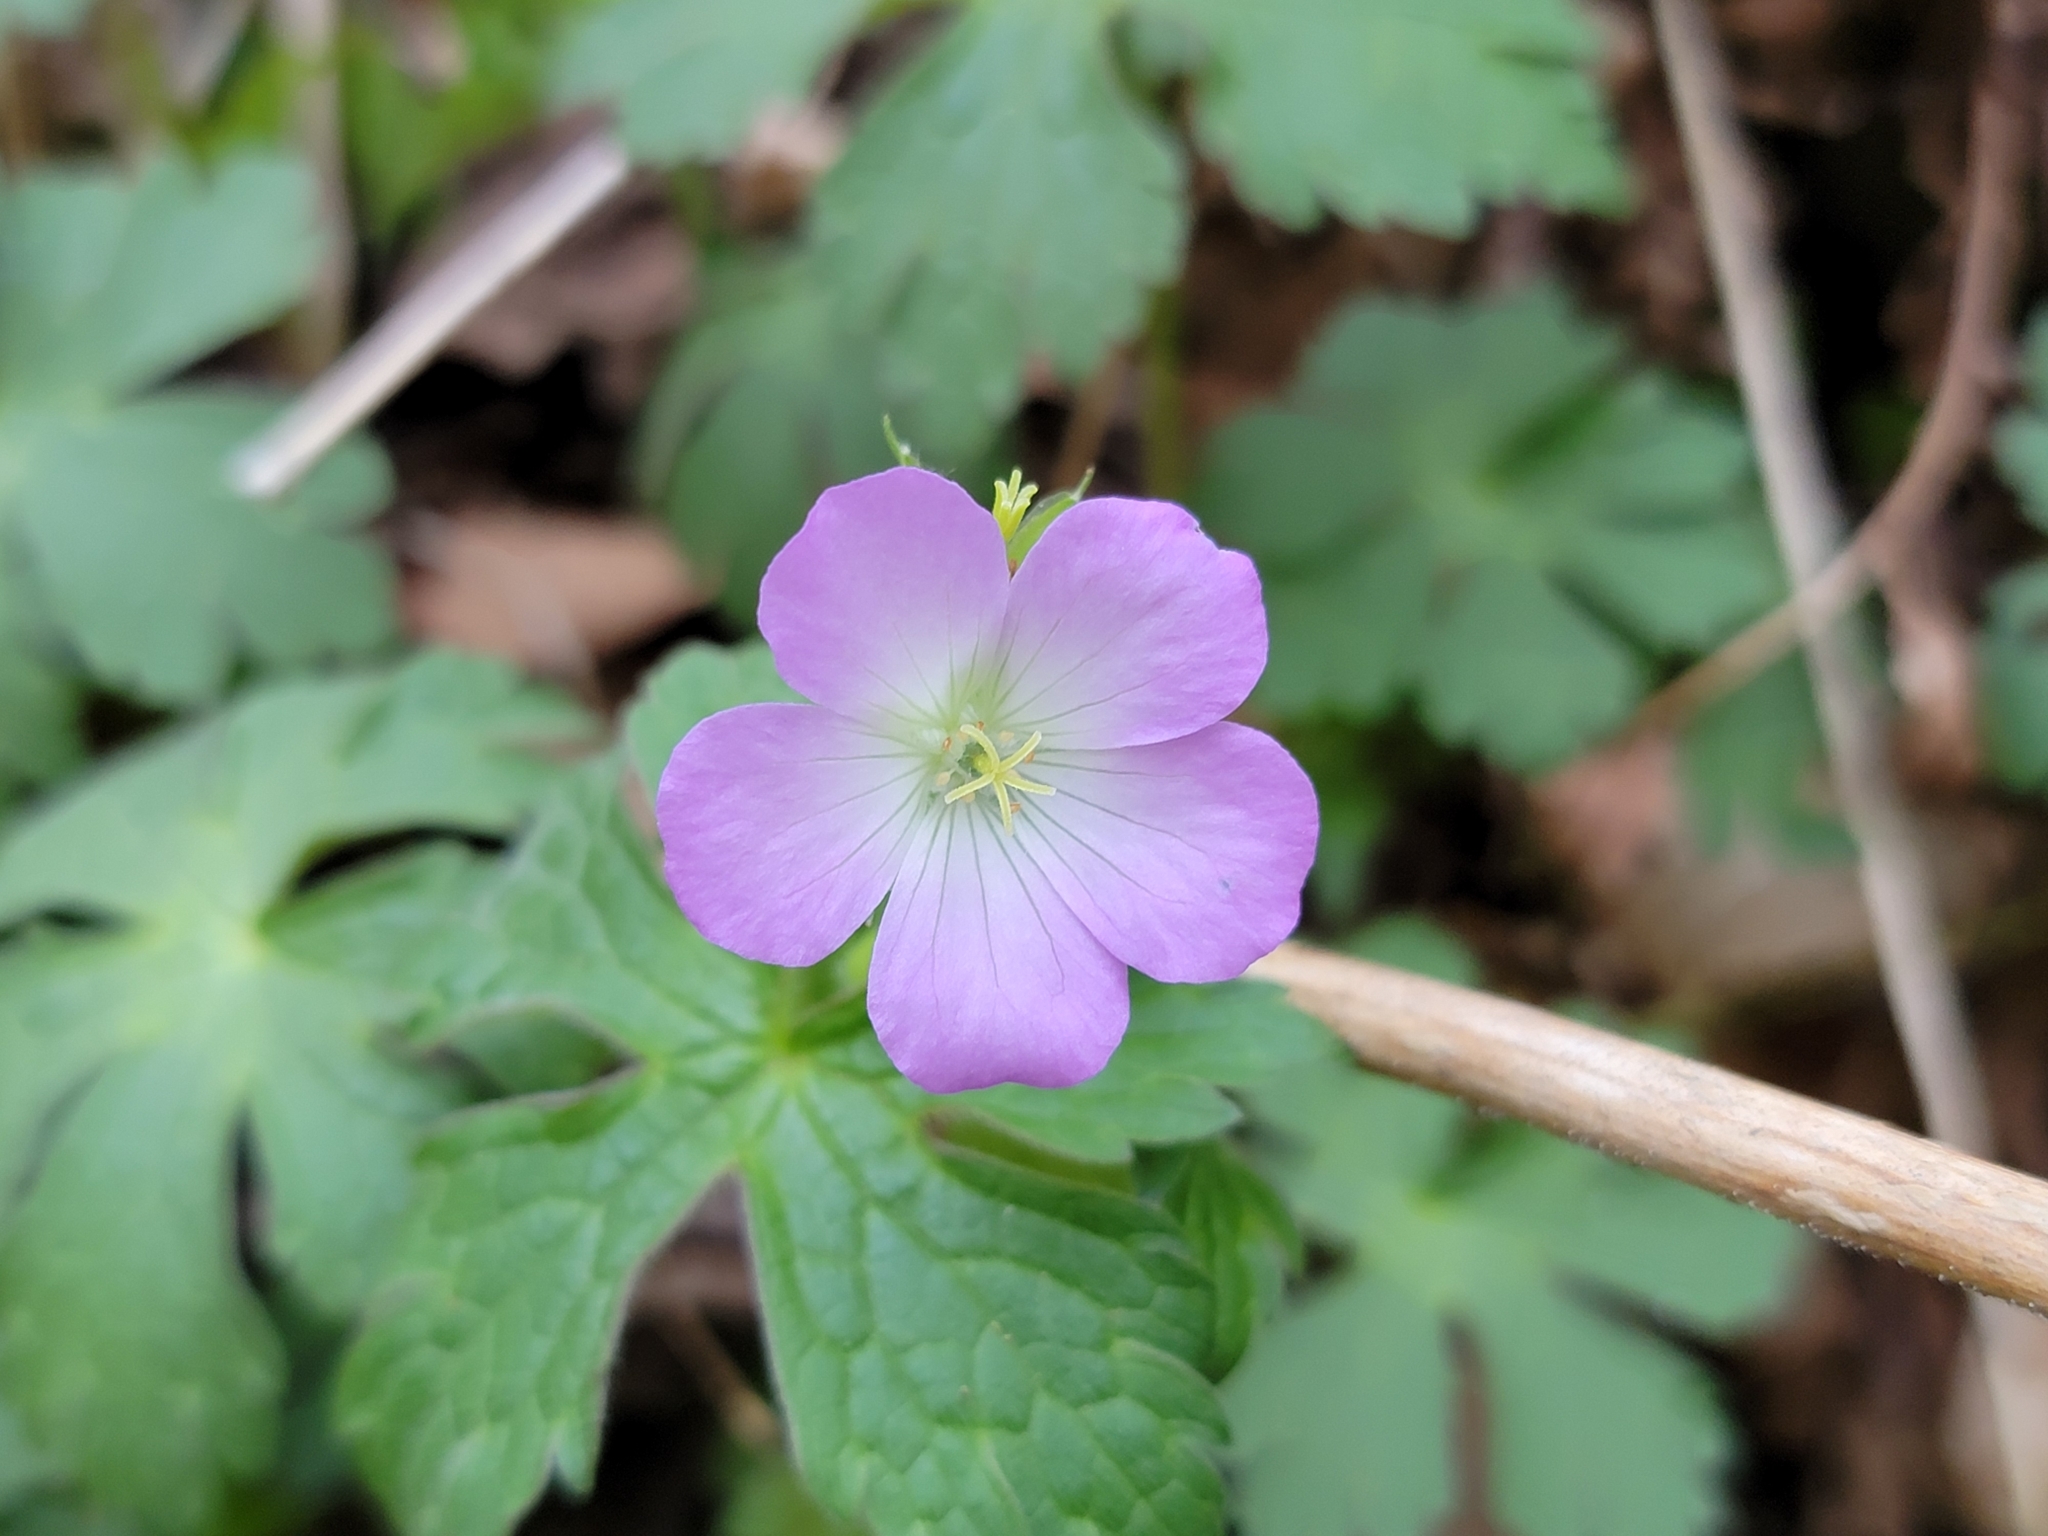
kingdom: Plantae
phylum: Tracheophyta
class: Magnoliopsida
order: Geraniales
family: Geraniaceae
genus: Geranium
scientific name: Geranium maculatum
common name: Spotted geranium
